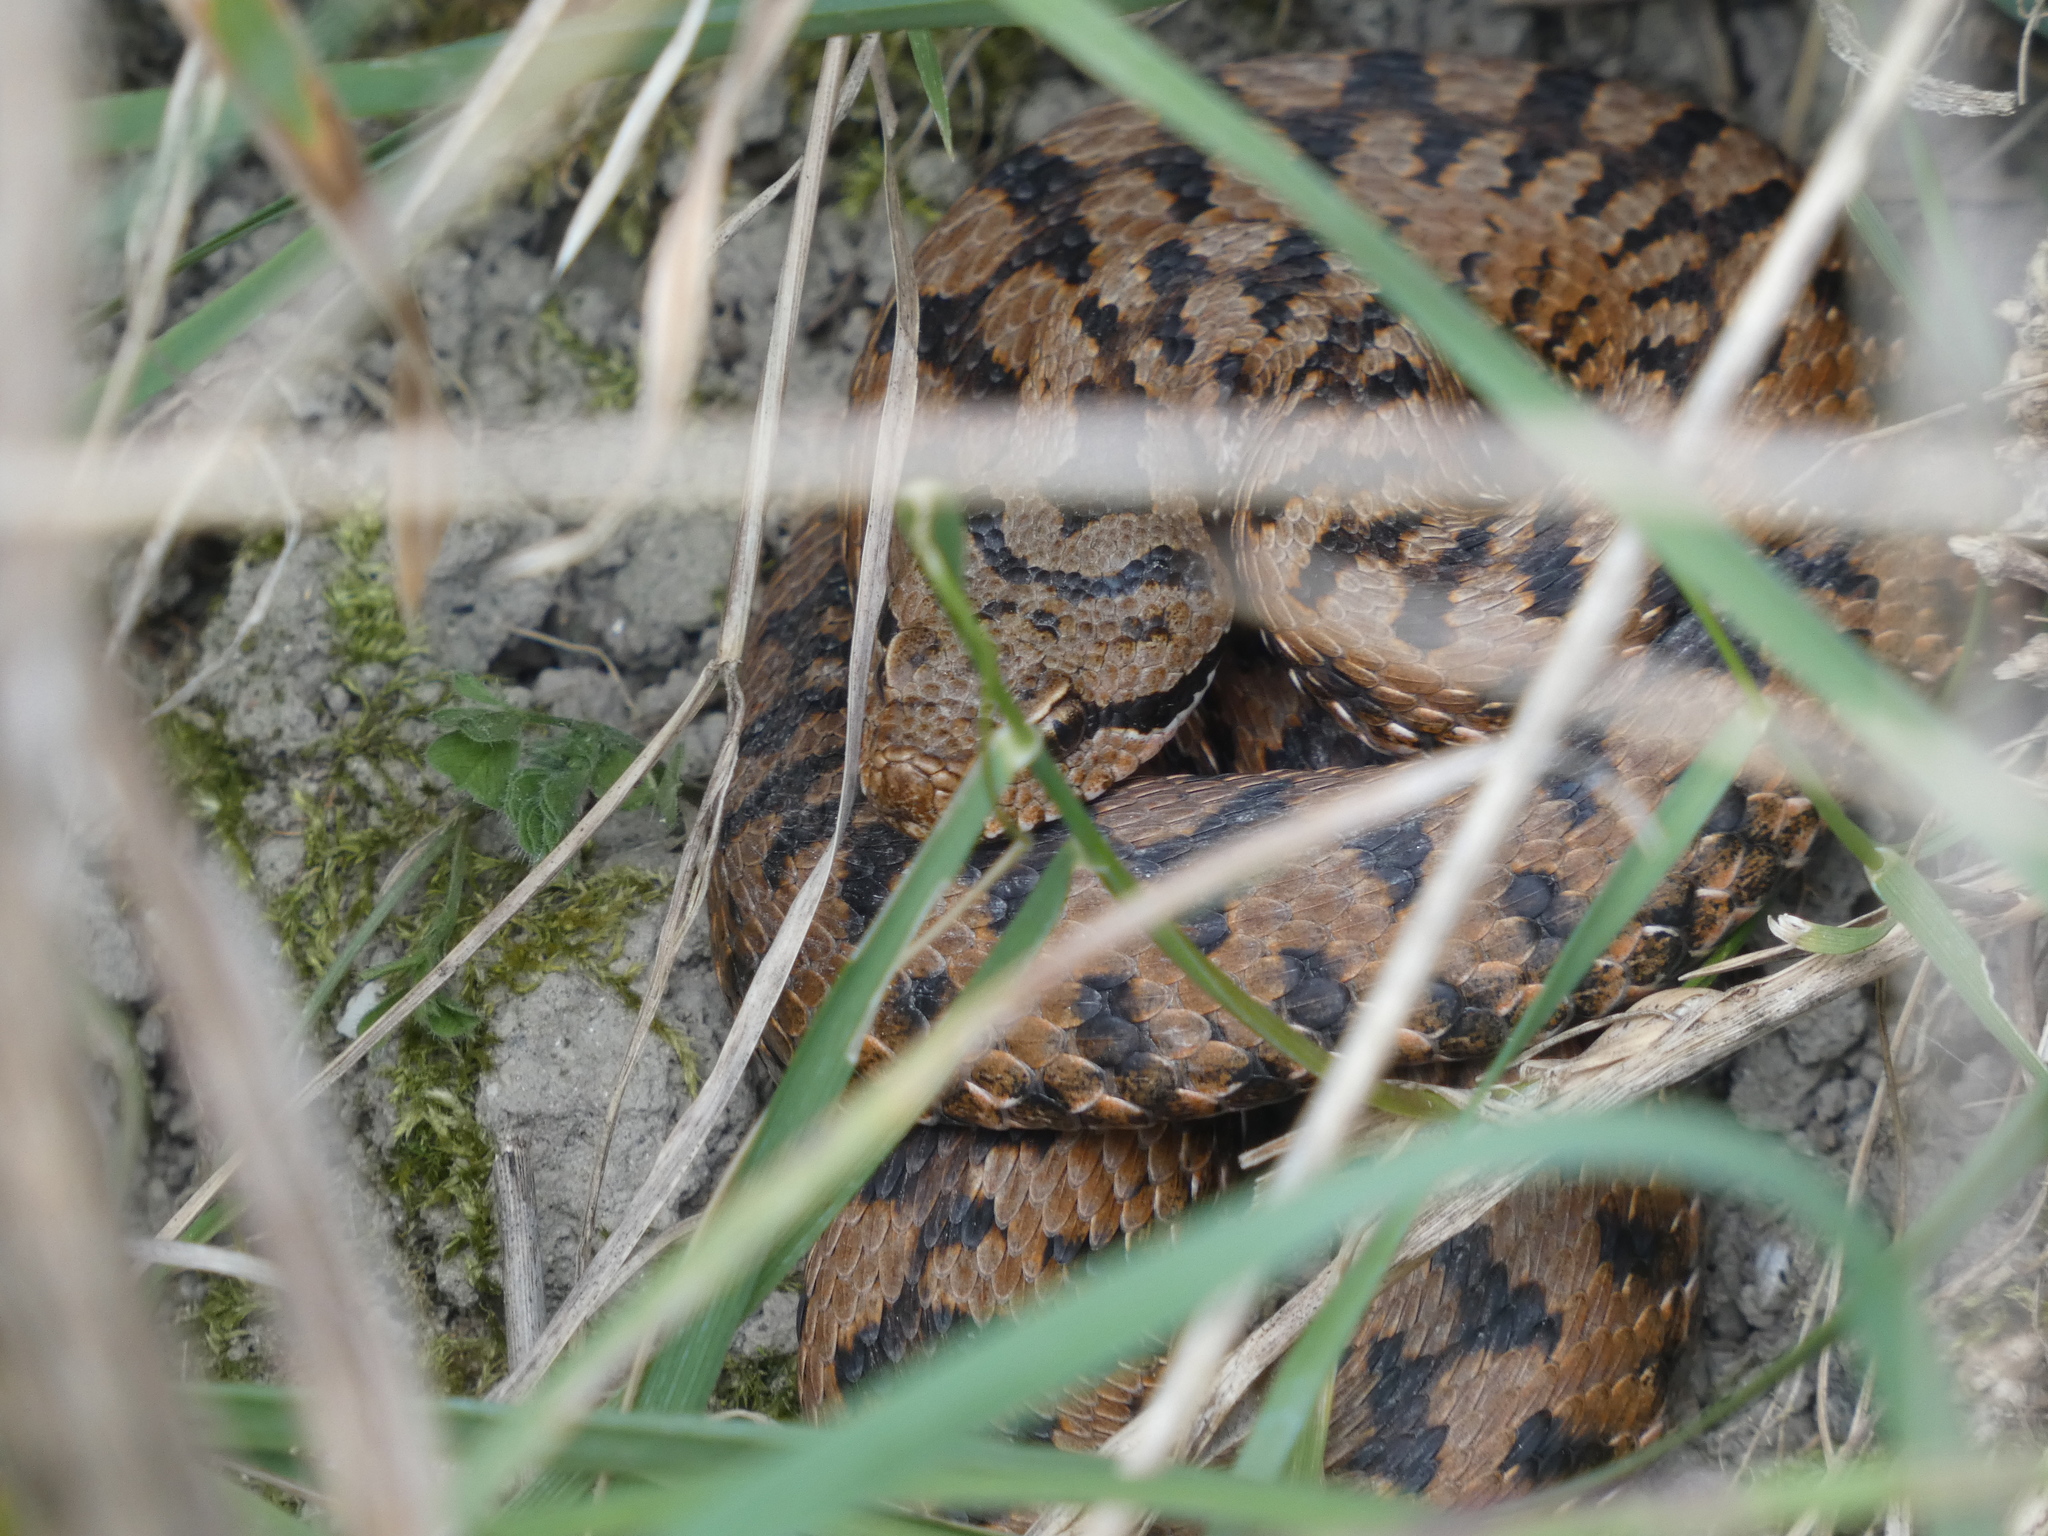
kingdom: Animalia
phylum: Chordata
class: Squamata
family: Viperidae
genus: Vipera
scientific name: Vipera aspis
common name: Asp viper
